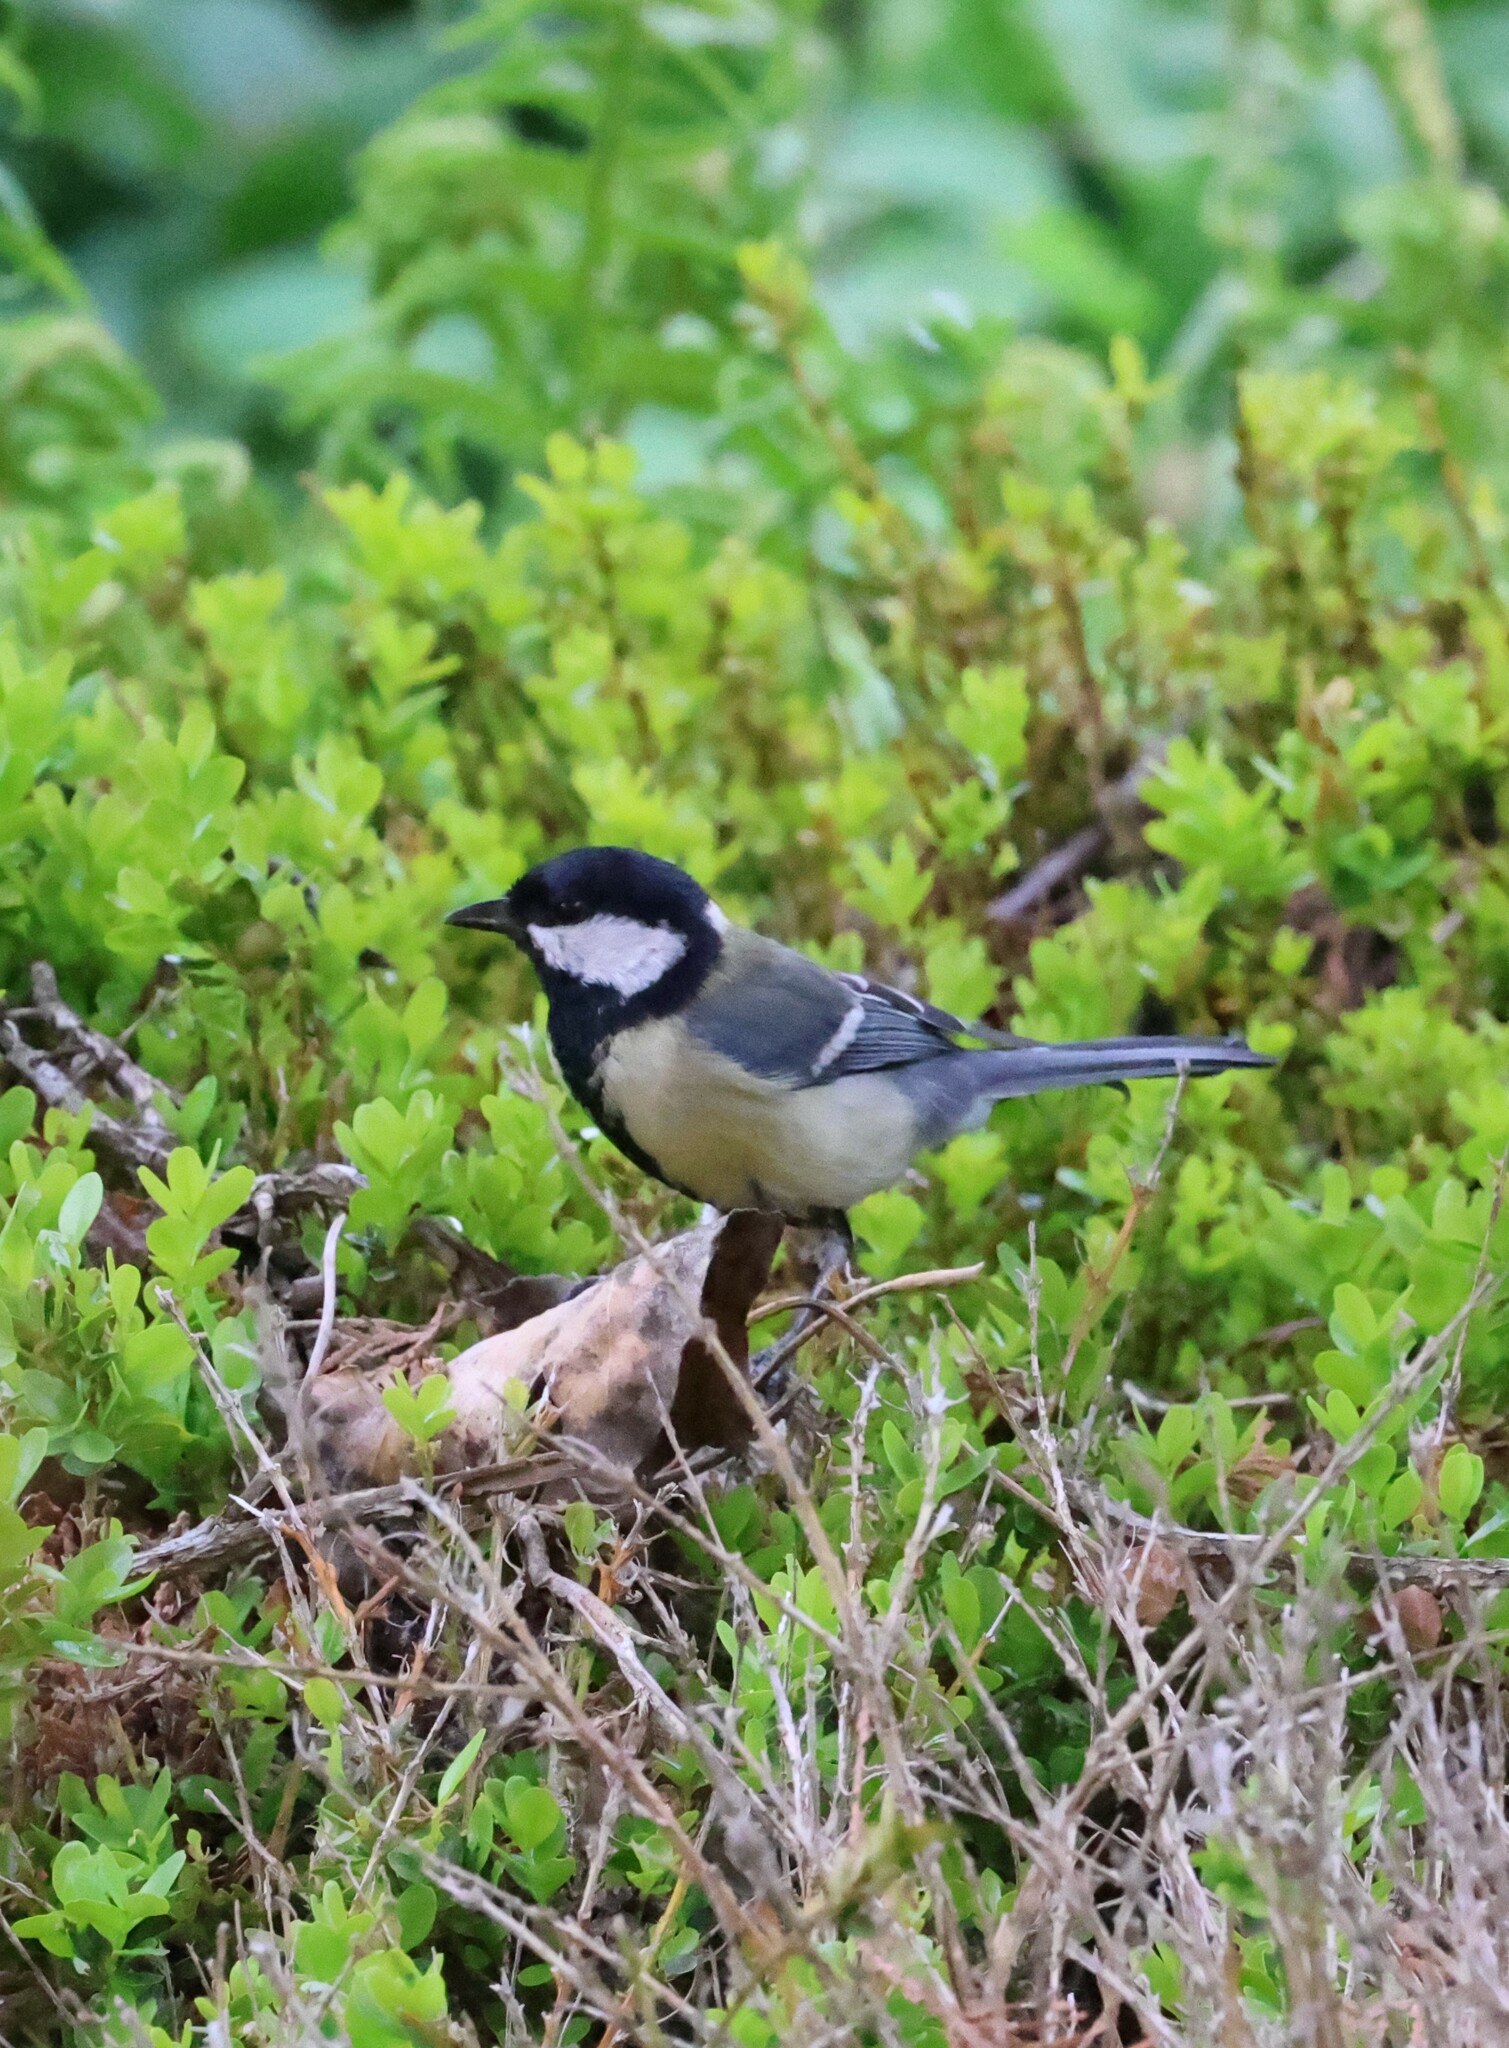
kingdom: Animalia
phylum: Chordata
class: Aves
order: Passeriformes
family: Paridae
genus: Parus
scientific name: Parus major
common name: Great tit
